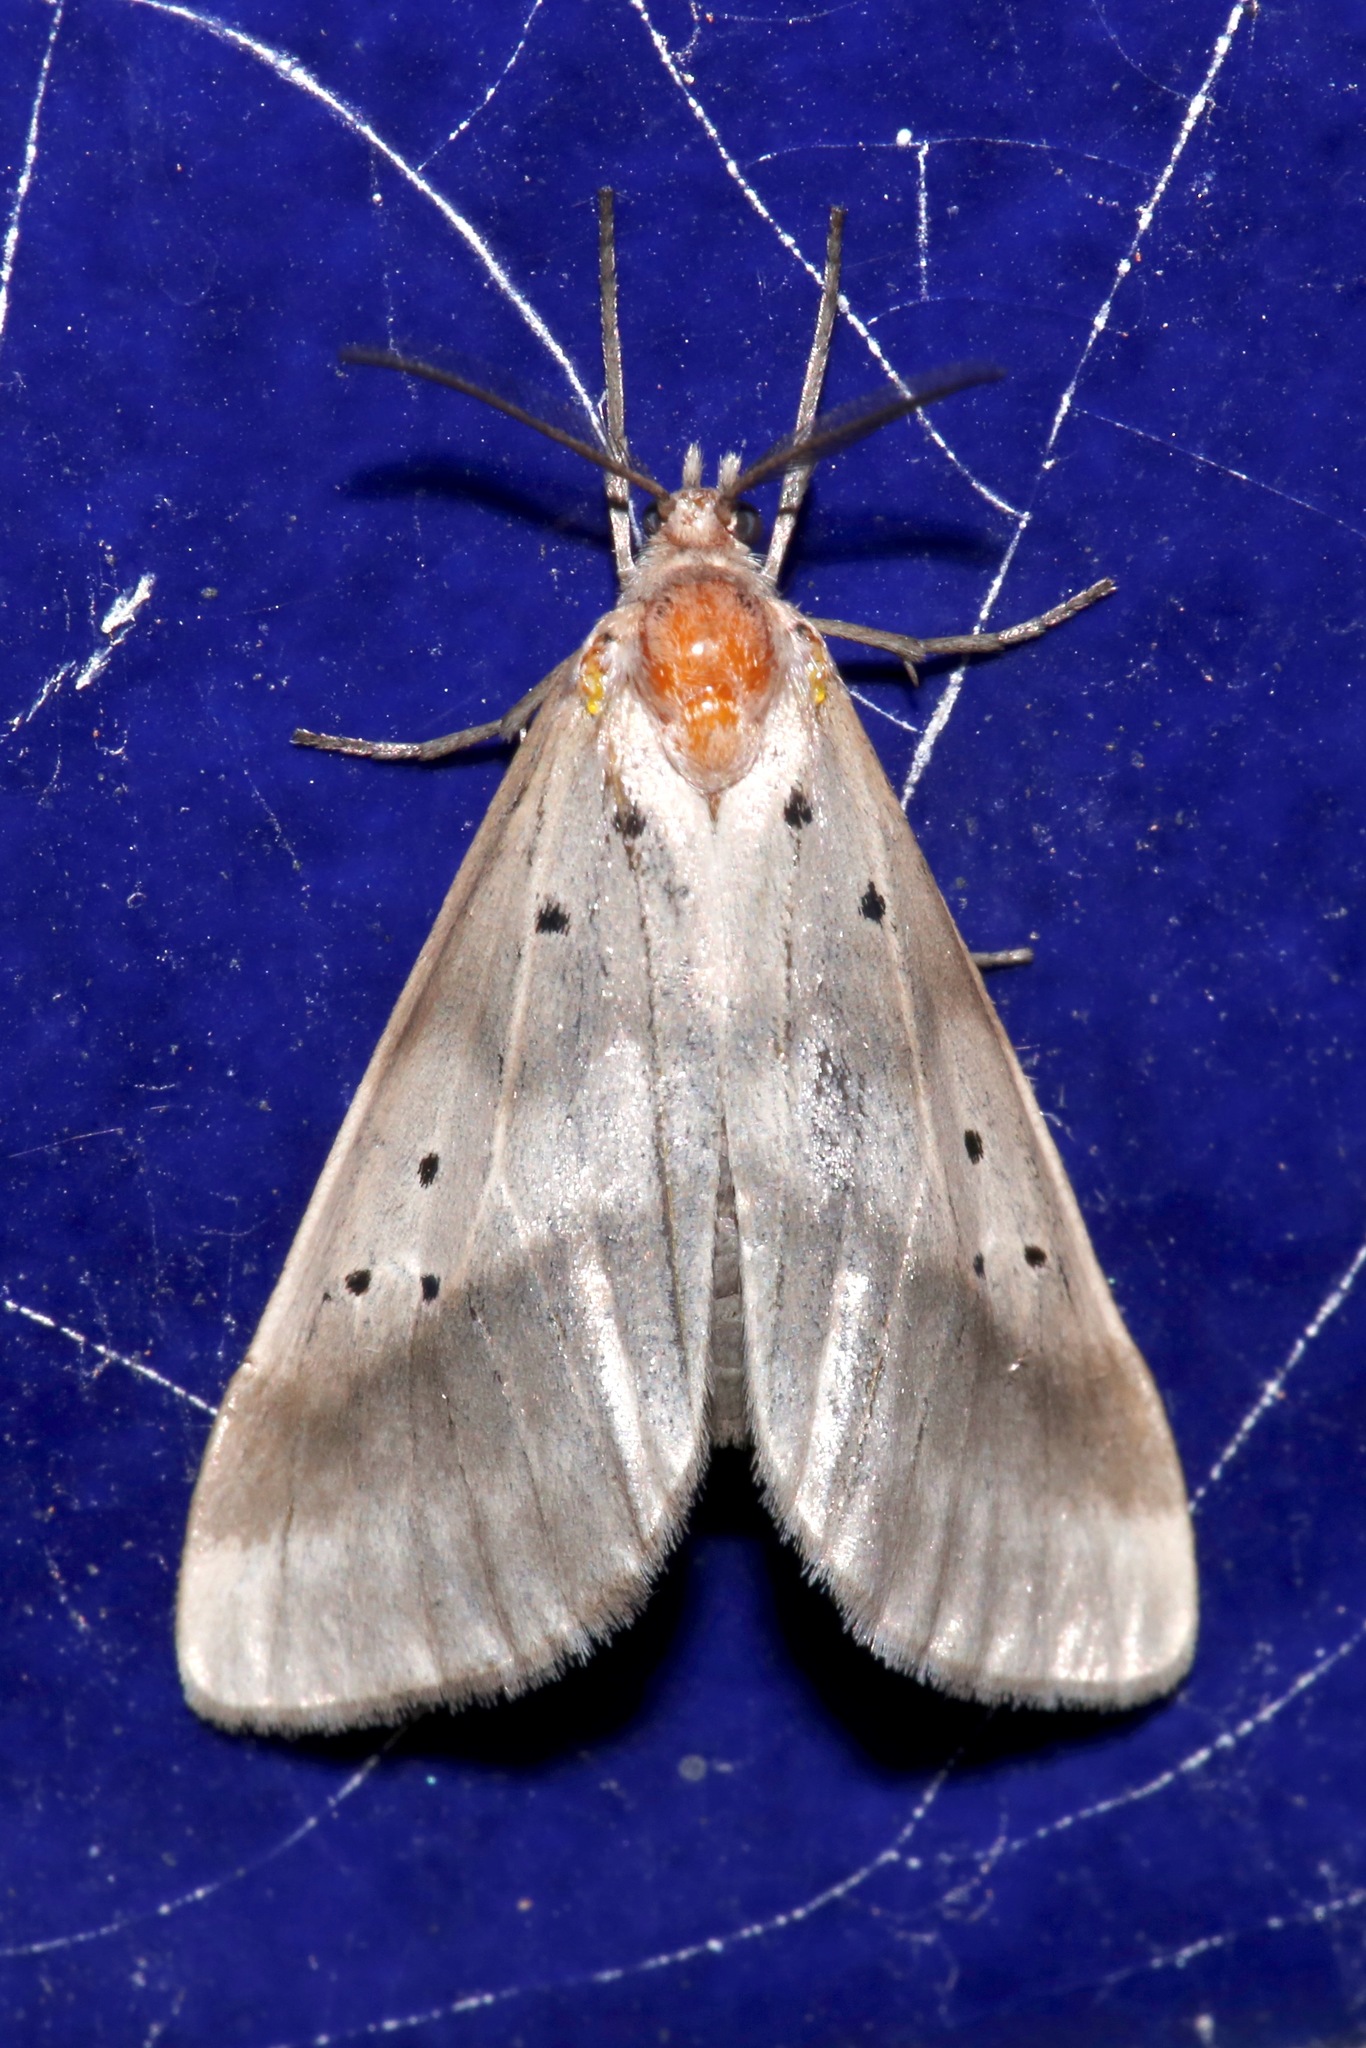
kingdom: Animalia
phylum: Arthropoda
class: Insecta
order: Lepidoptera
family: Doidae
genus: Doa
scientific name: Doa dora
